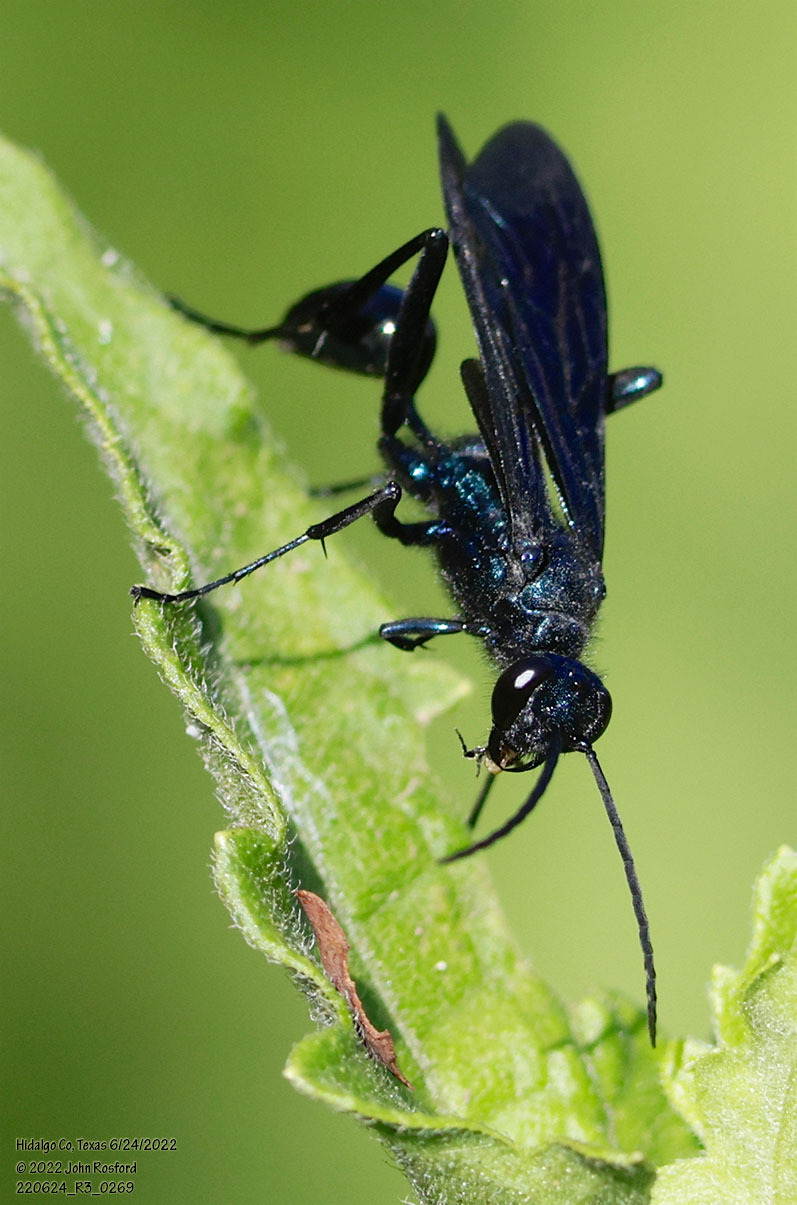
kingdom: Animalia
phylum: Arthropoda
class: Insecta
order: Hymenoptera
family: Sphecidae
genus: Chalybion
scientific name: Chalybion californicum
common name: Mud dauber
